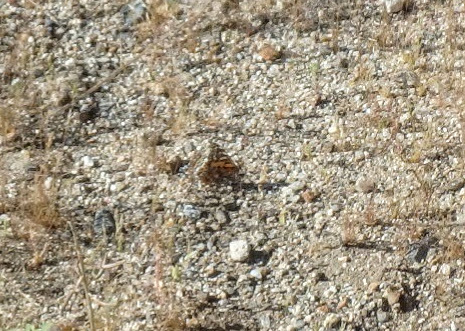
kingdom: Animalia
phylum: Arthropoda
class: Insecta
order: Lepidoptera
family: Nymphalidae
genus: Vanessa
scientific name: Vanessa cardui
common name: Painted lady
